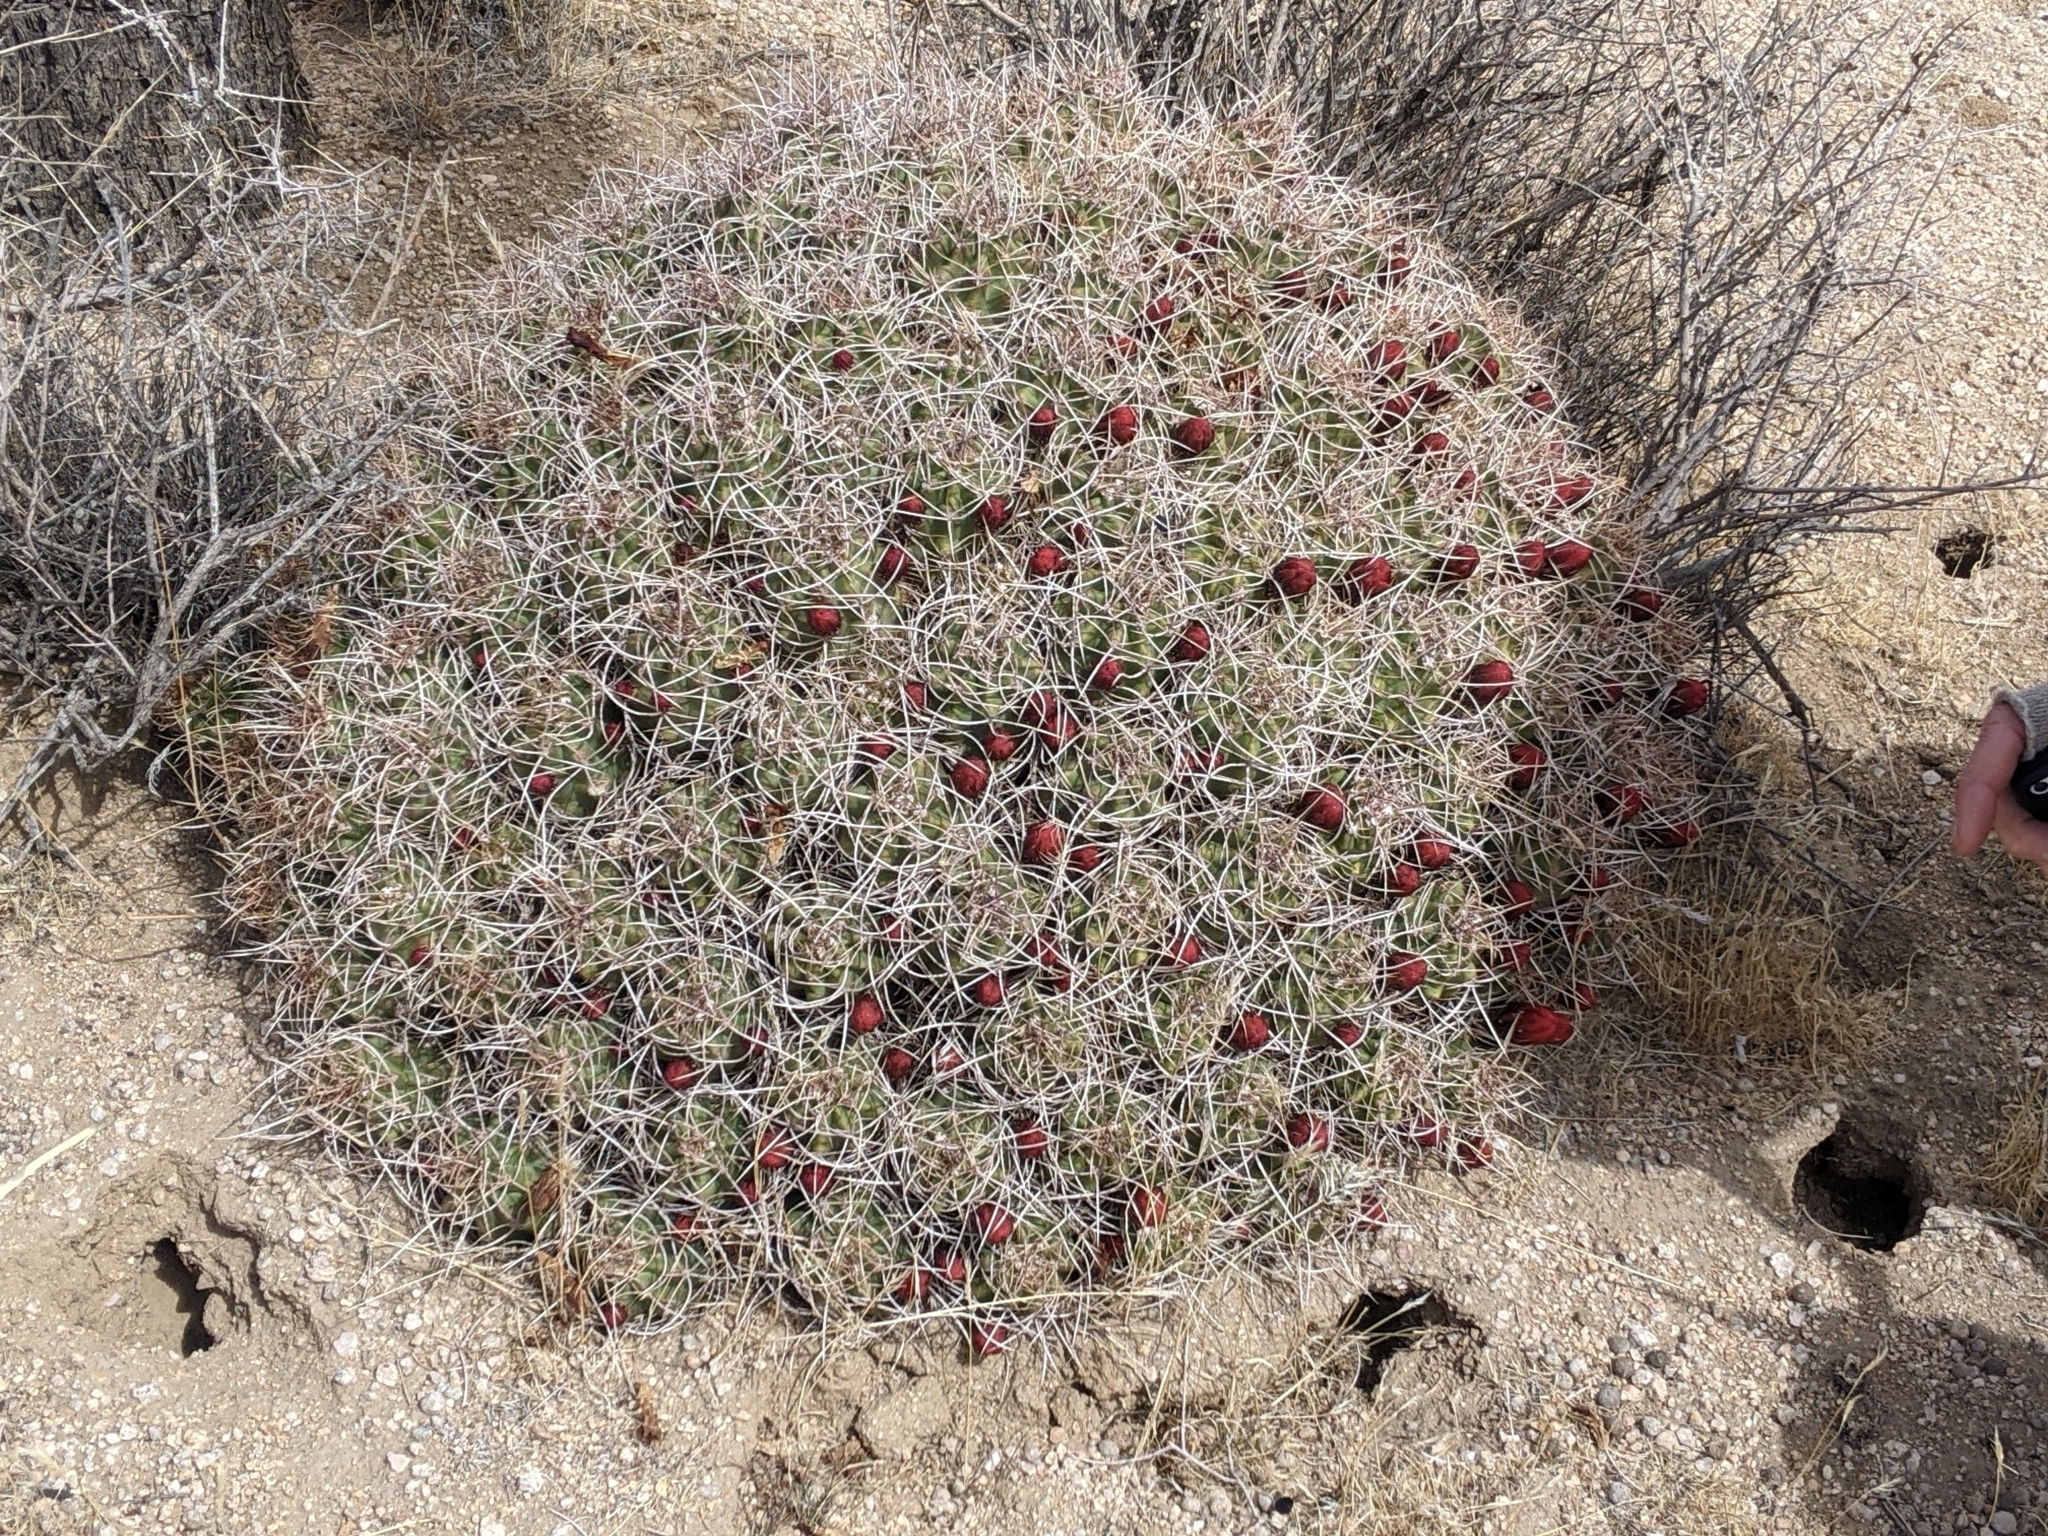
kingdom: Plantae
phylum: Tracheophyta
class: Magnoliopsida
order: Caryophyllales
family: Cactaceae
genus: Echinocereus
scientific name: Echinocereus triglochidiatus
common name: Claretcup hedgehog
